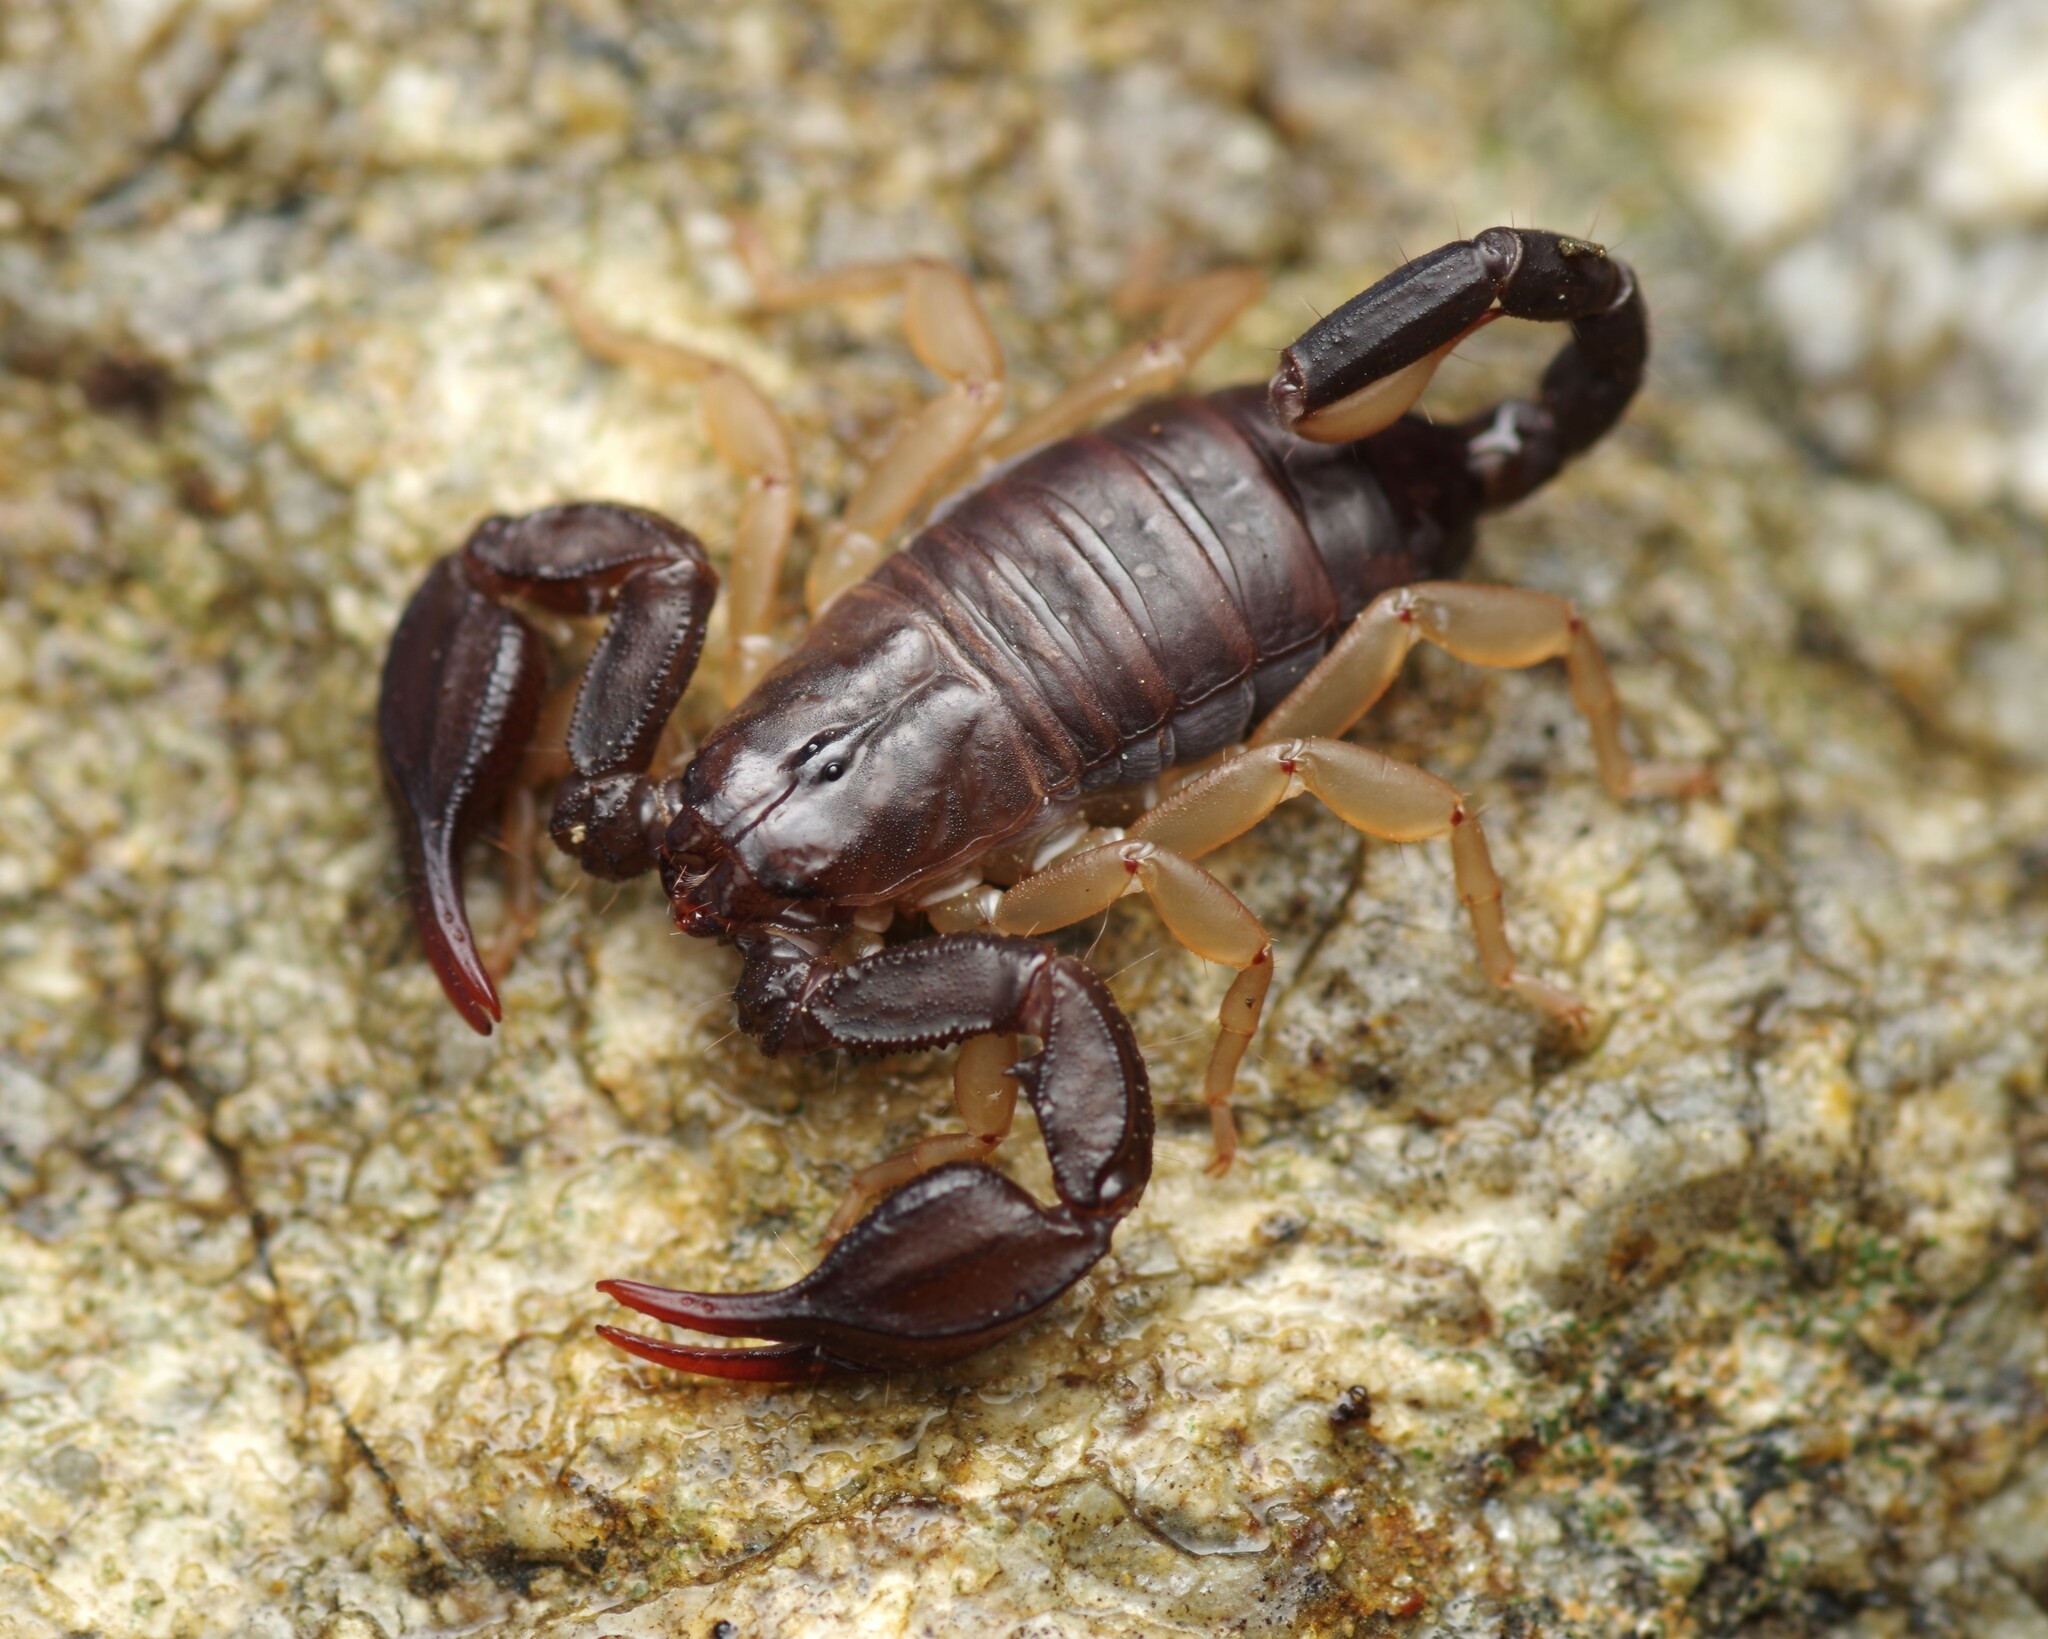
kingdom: Animalia
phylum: Arthropoda
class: Arachnida
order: Scorpiones
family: Euscorpiidae
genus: Euscorpius
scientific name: Euscorpius flavicaudis
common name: European yellow-tailed scorpion
